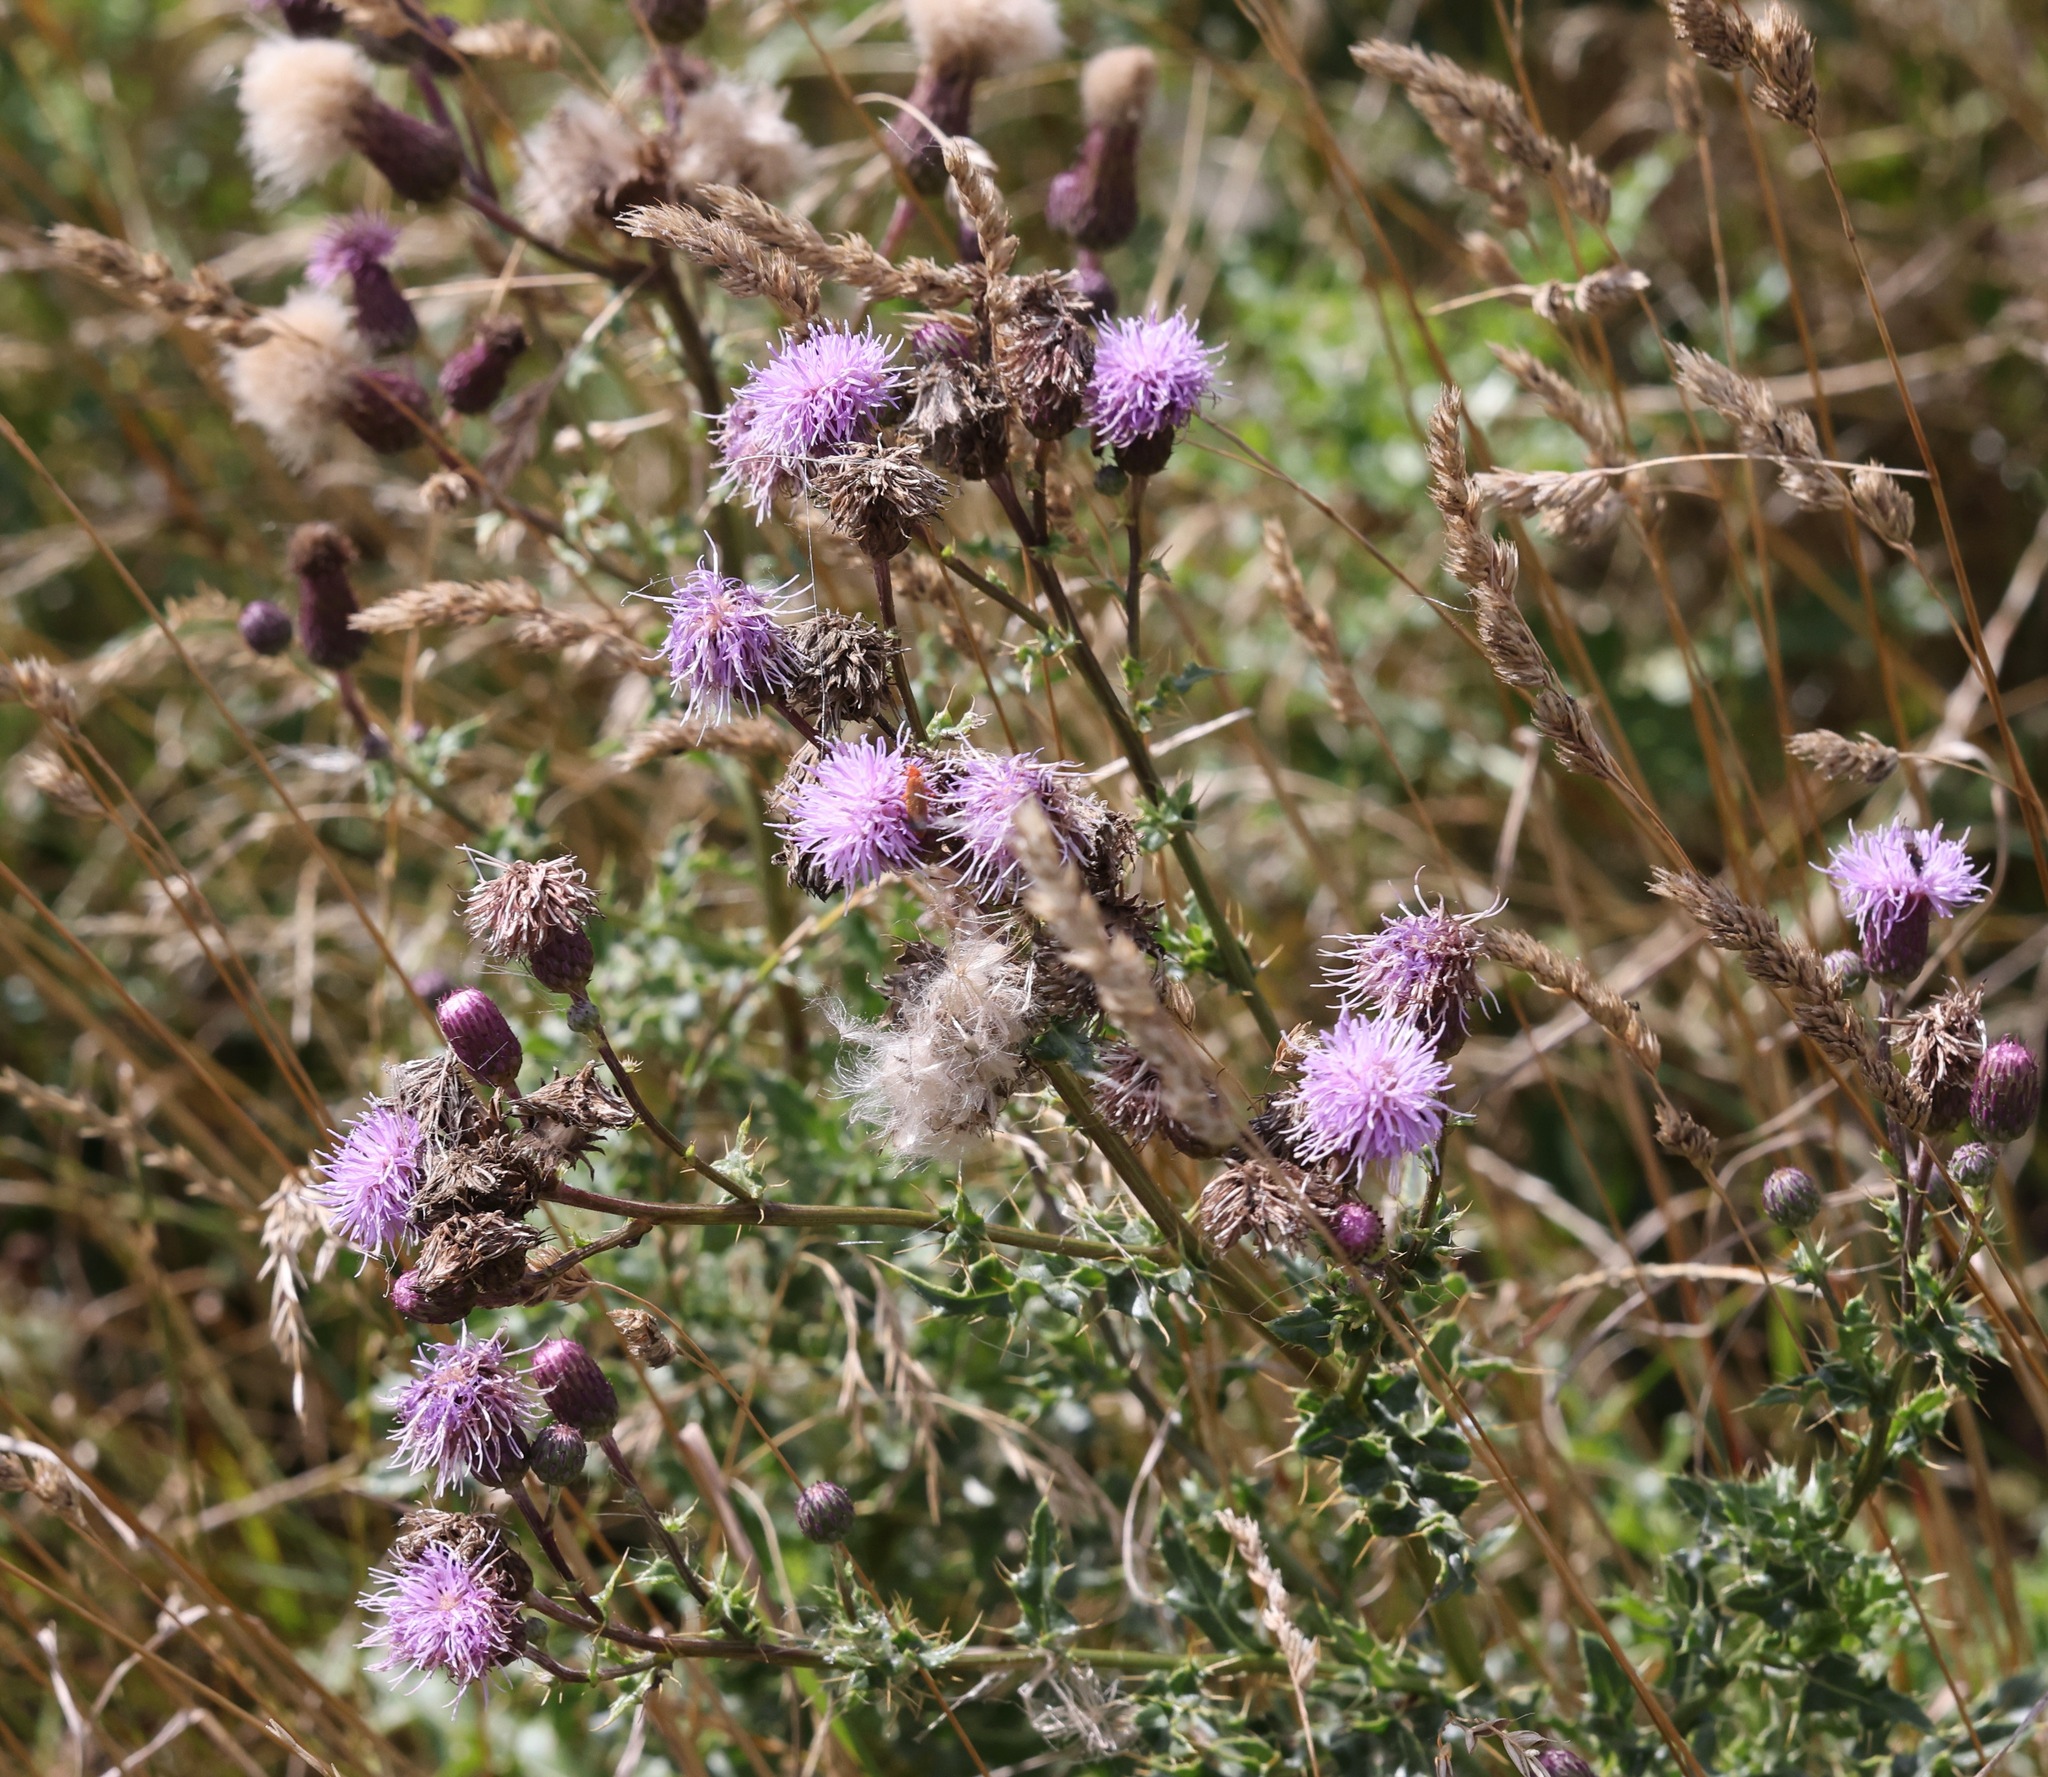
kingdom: Plantae
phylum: Tracheophyta
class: Magnoliopsida
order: Asterales
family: Asteraceae
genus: Cirsium
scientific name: Cirsium arvense
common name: Creeping thistle
